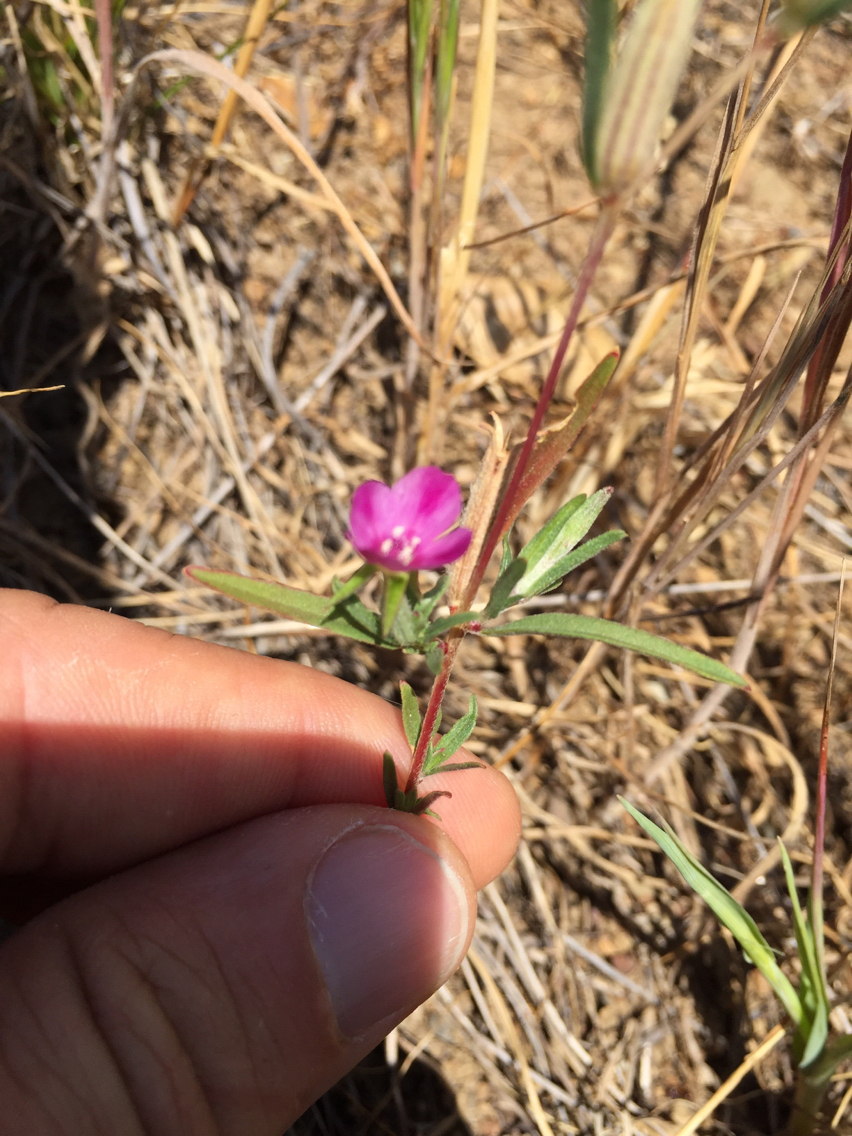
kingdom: Plantae
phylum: Tracheophyta
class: Magnoliopsida
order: Myrtales
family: Onagraceae
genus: Clarkia
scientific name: Clarkia purpurea
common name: Purple clarkia
